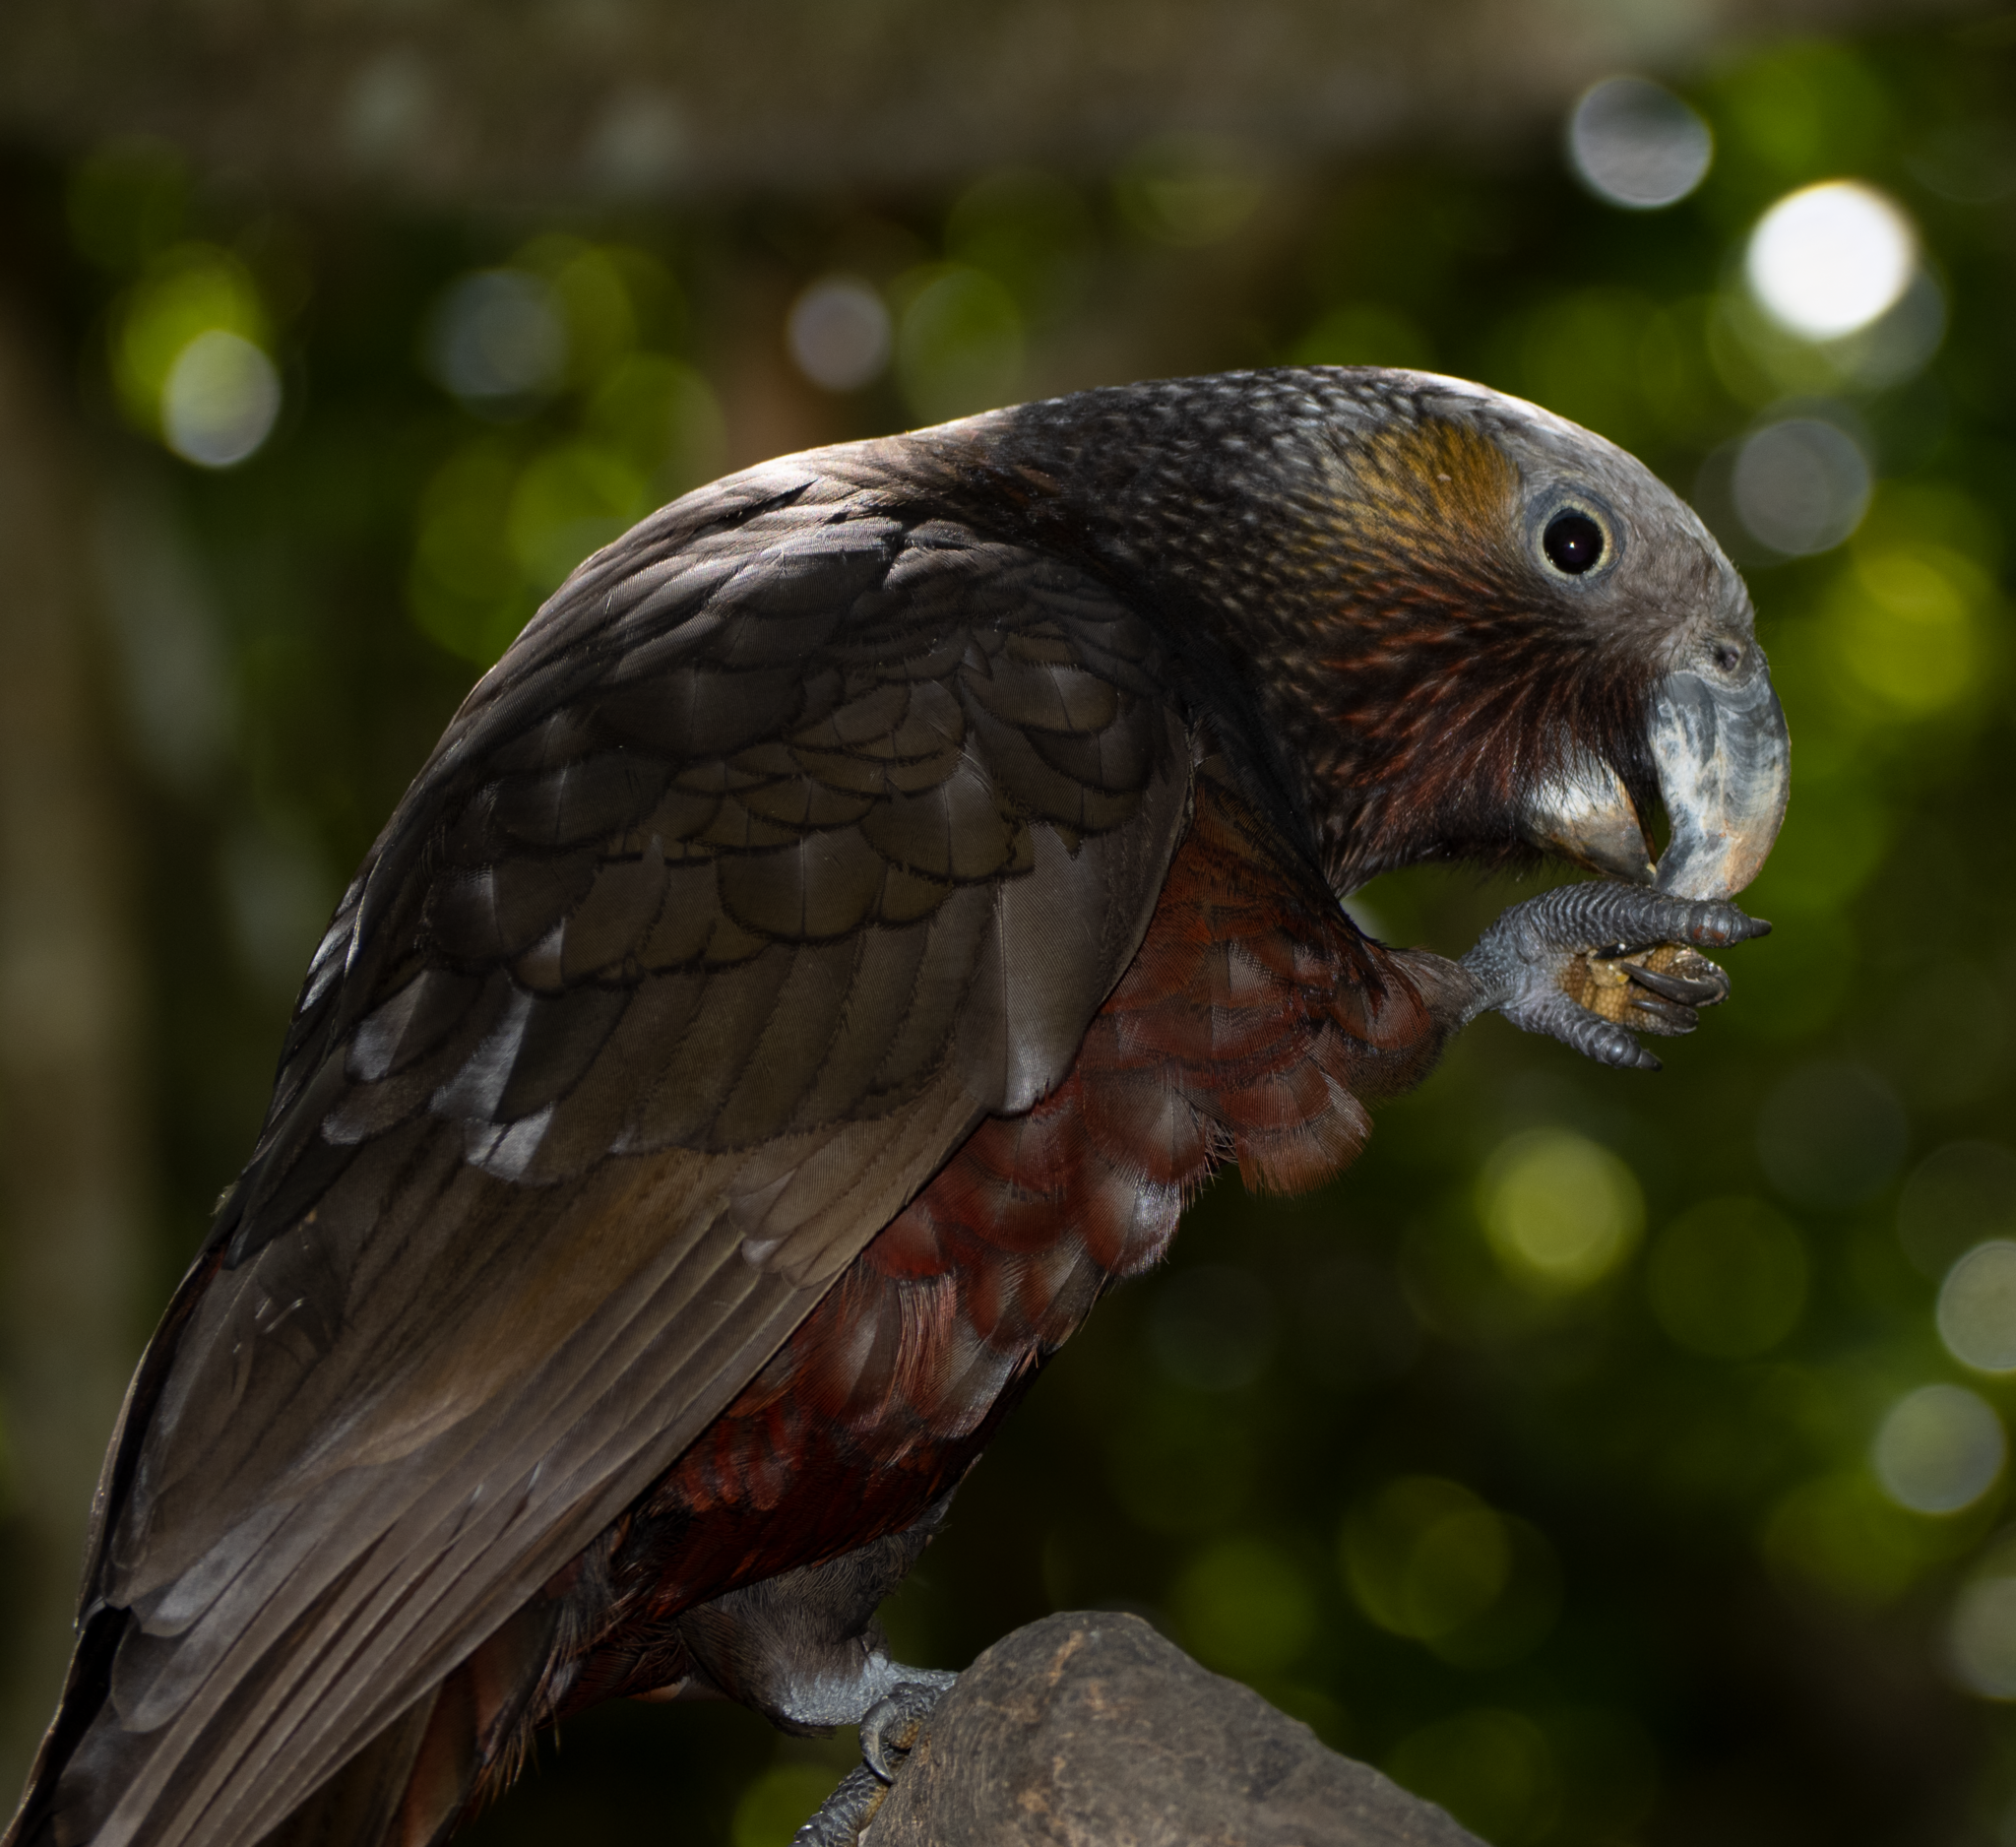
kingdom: Animalia
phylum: Chordata
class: Aves
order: Psittaciformes
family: Psittacidae
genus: Nestor
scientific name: Nestor meridionalis
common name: New zealand kaka
